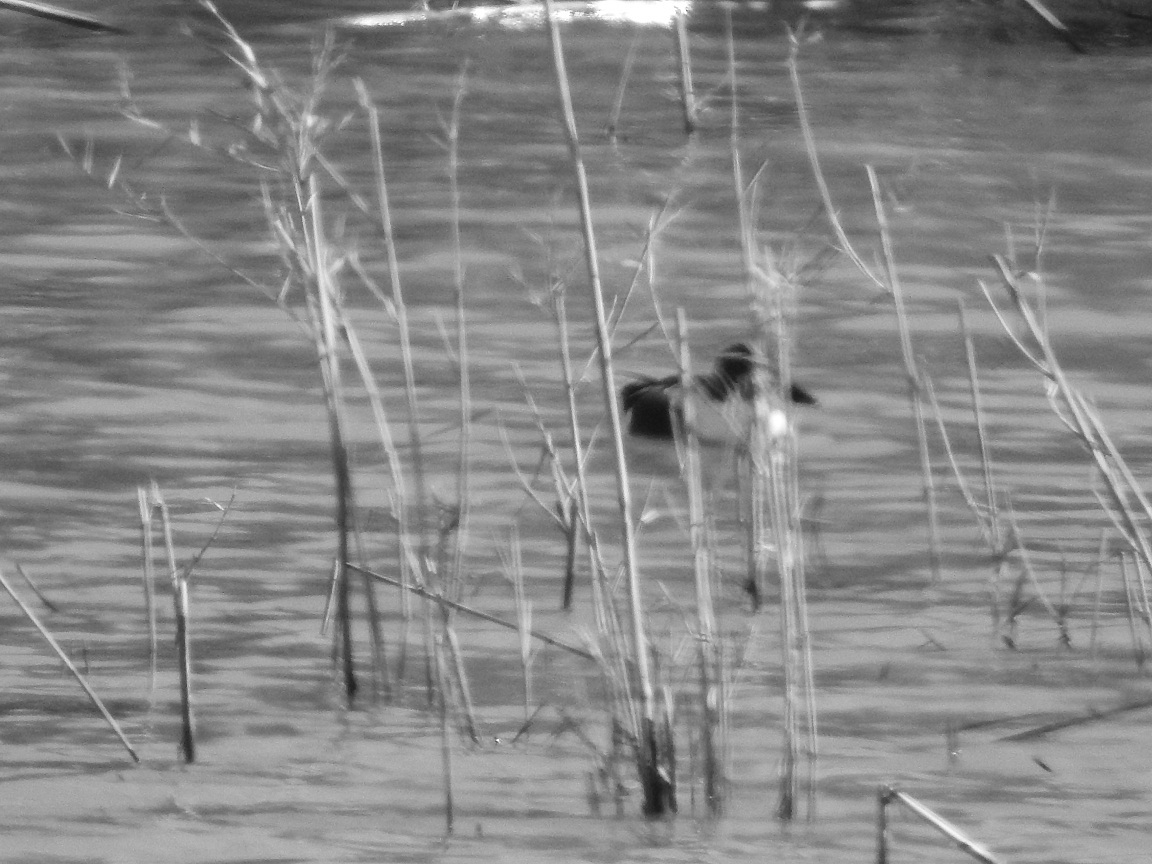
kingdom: Animalia
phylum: Chordata
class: Aves
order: Anseriformes
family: Anatidae
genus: Spatula
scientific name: Spatula clypeata
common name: Northern shoveler
